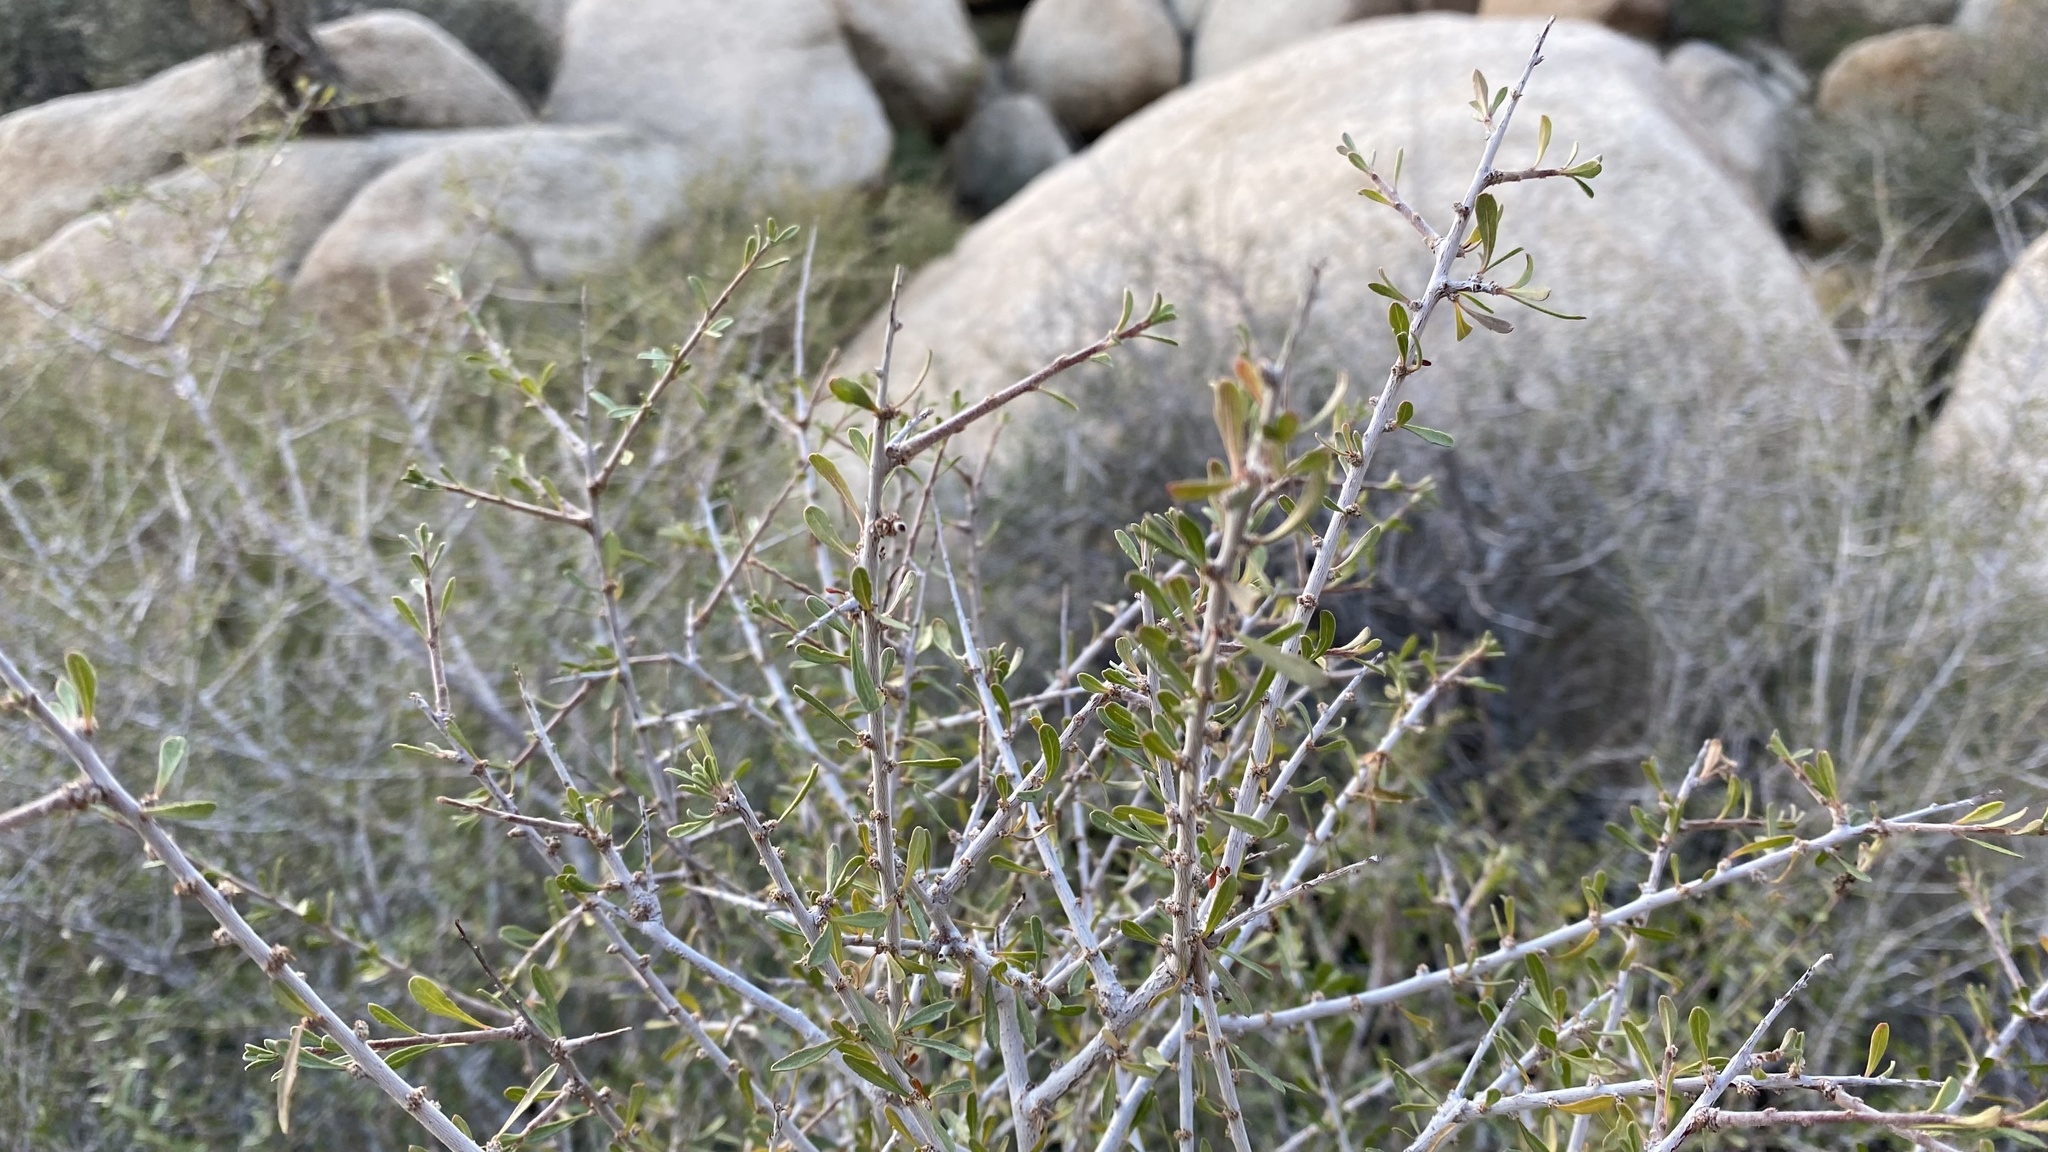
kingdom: Plantae
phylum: Tracheophyta
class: Magnoliopsida
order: Rosales
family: Rosaceae
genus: Prunus
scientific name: Prunus fasciculata
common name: Desert almond
